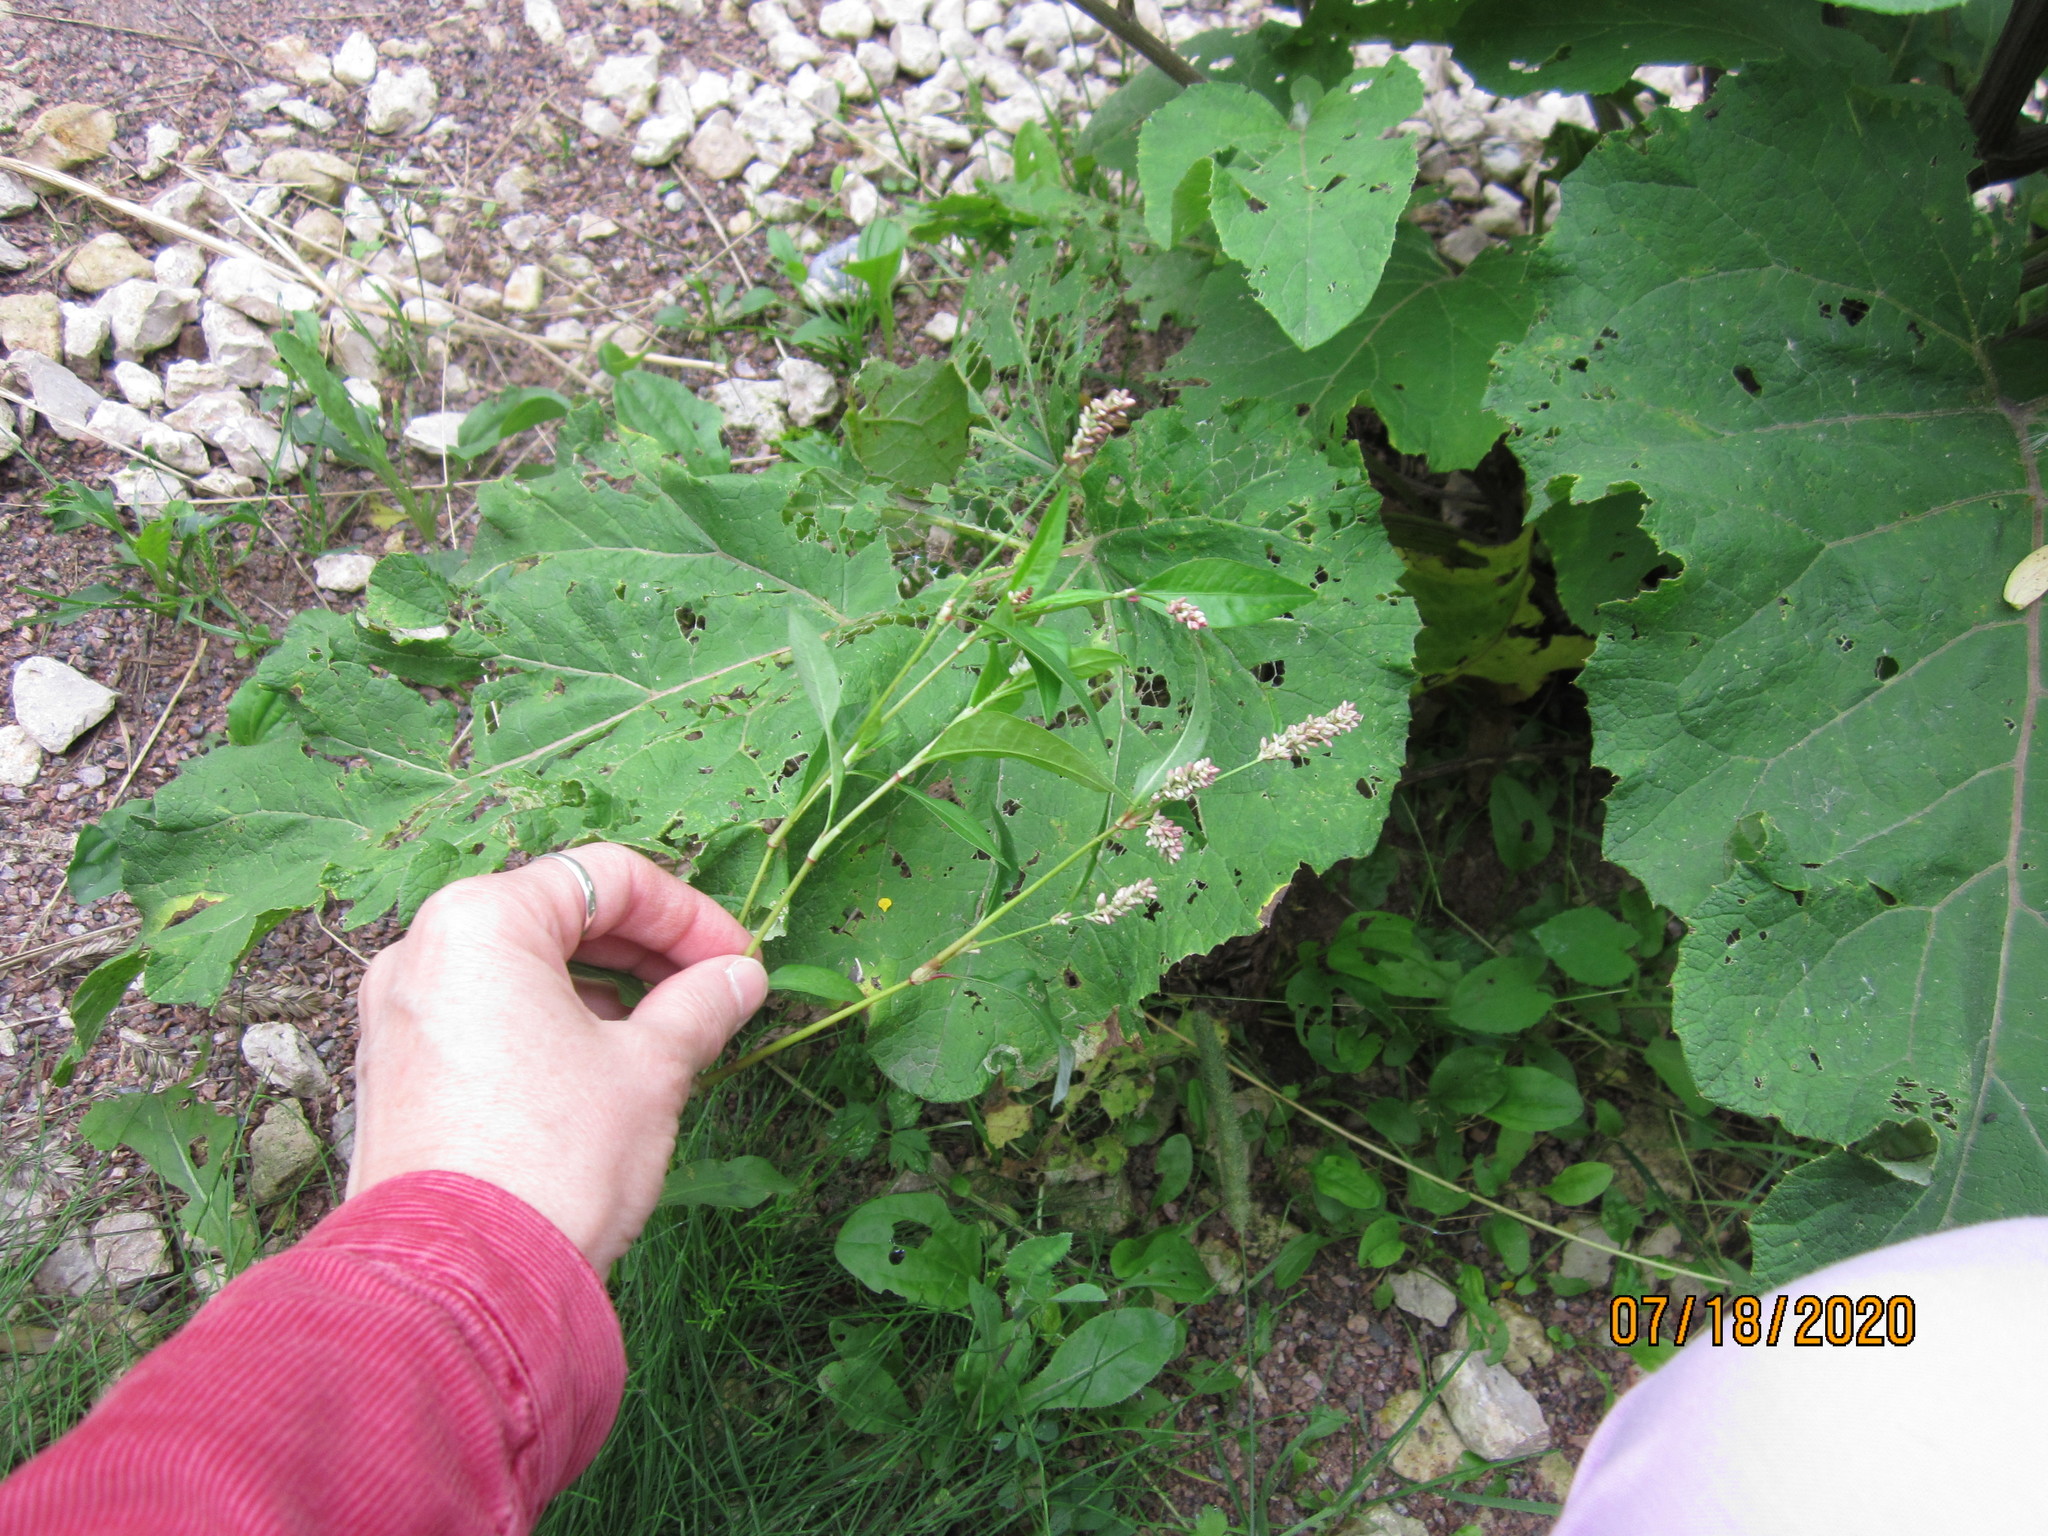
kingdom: Plantae
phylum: Tracheophyta
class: Magnoliopsida
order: Caryophyllales
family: Polygonaceae
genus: Persicaria
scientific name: Persicaria maculosa
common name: Redshank
